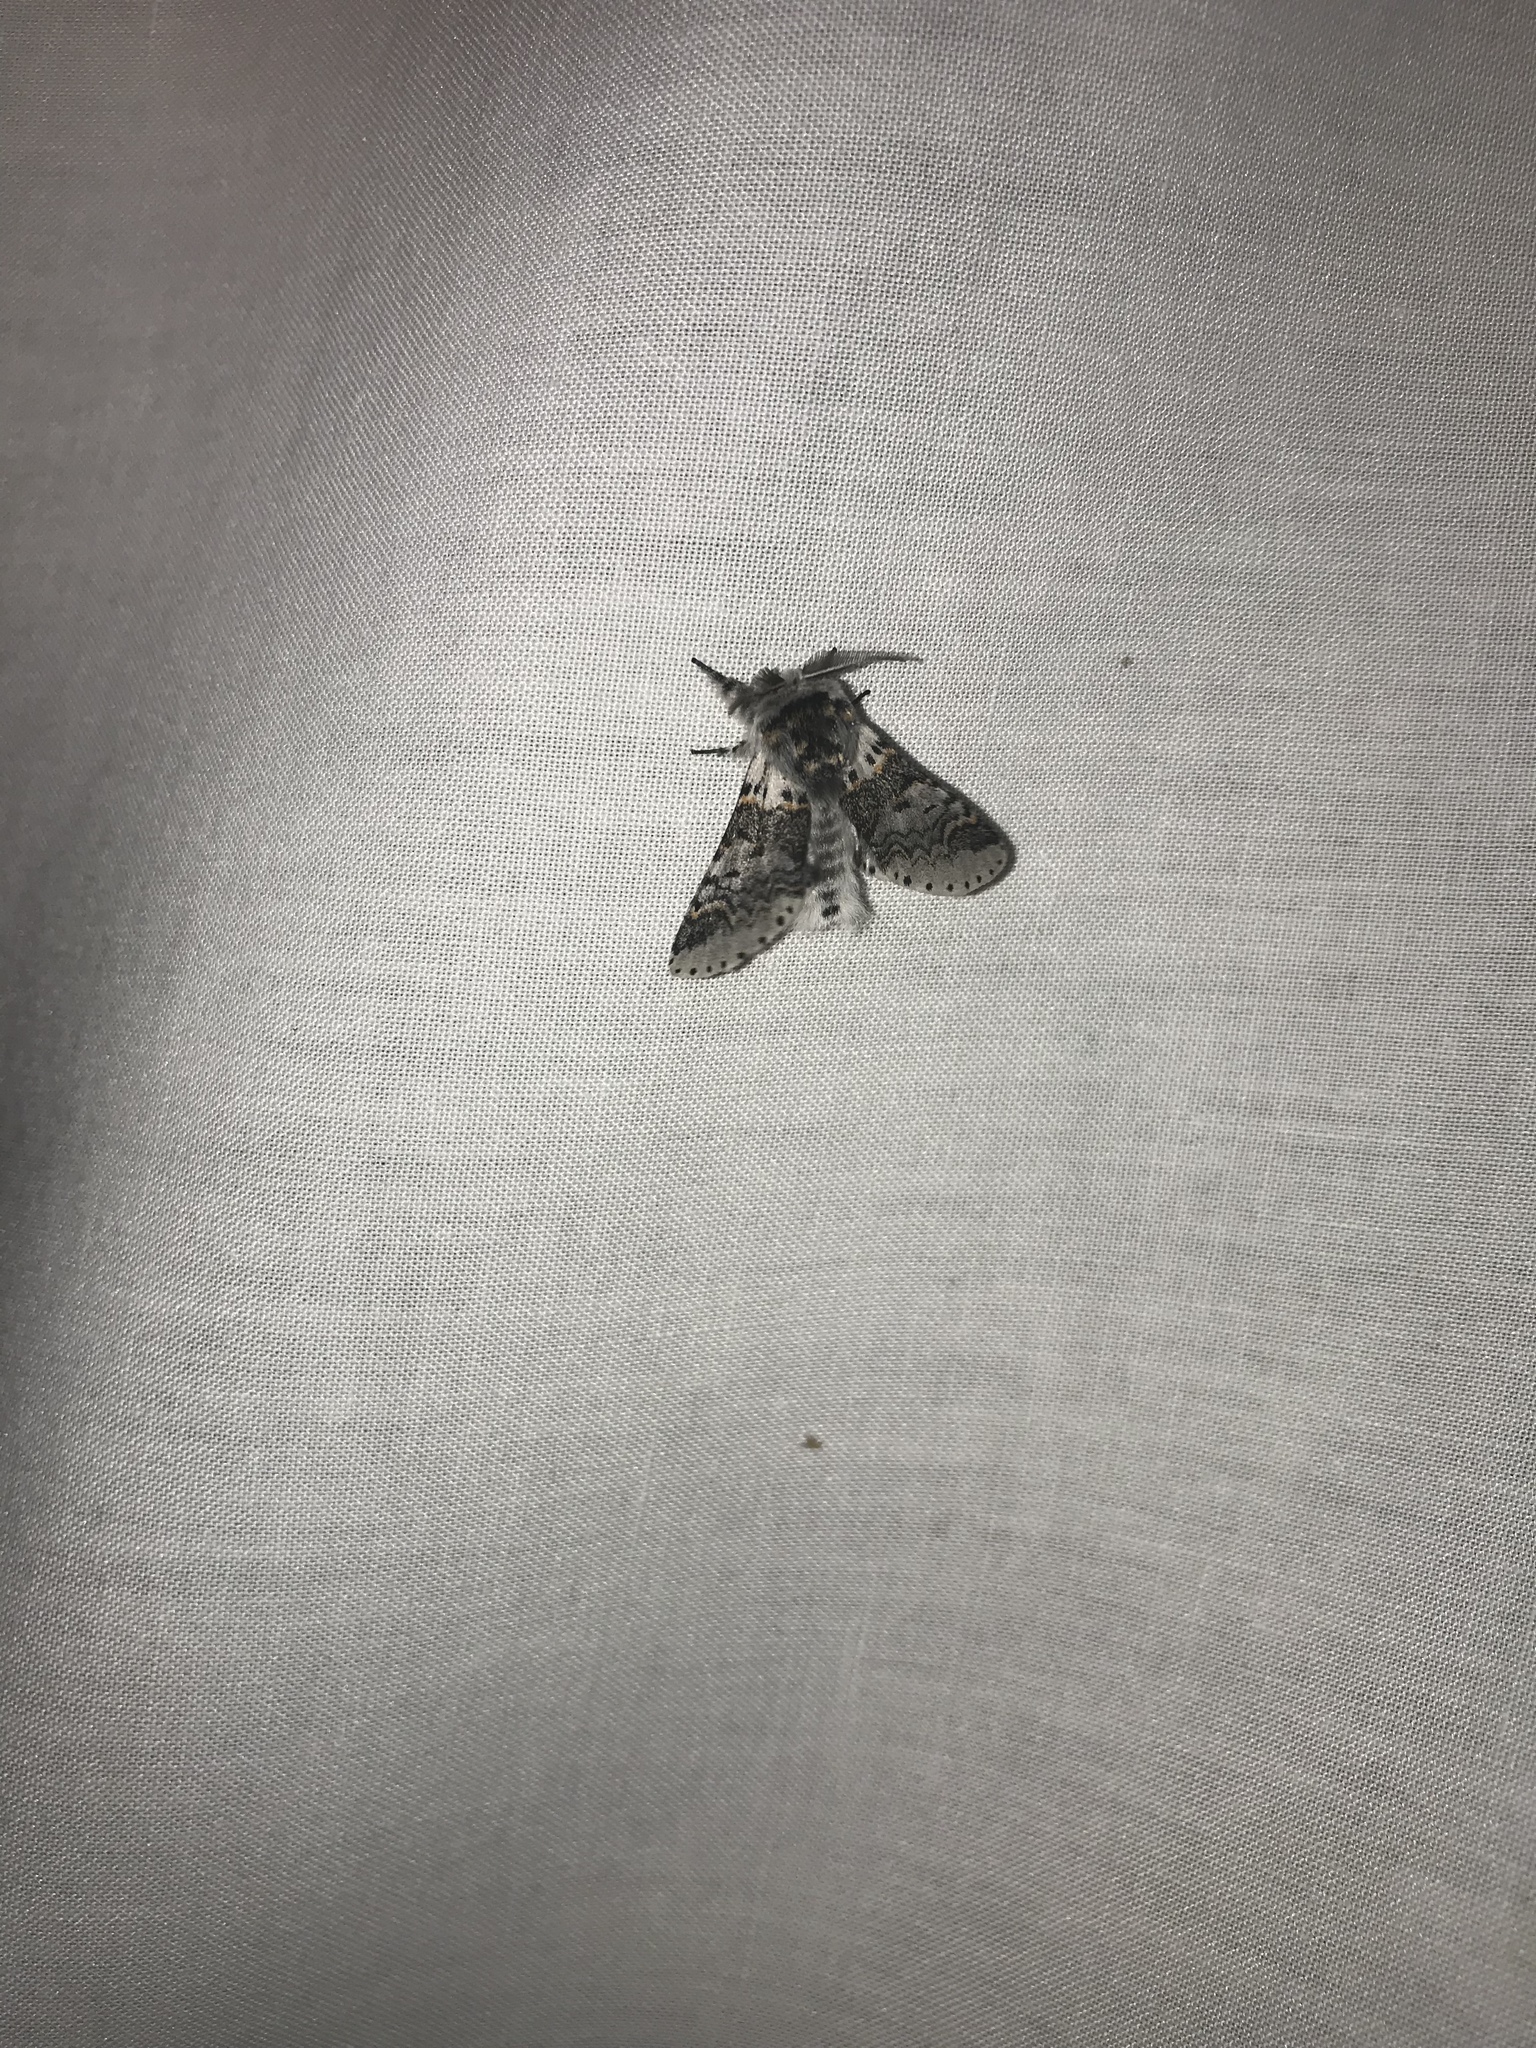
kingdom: Animalia
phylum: Arthropoda
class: Insecta
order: Lepidoptera
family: Notodontidae
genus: Furcula
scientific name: Furcula occidentalis
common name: Western furcula moth
